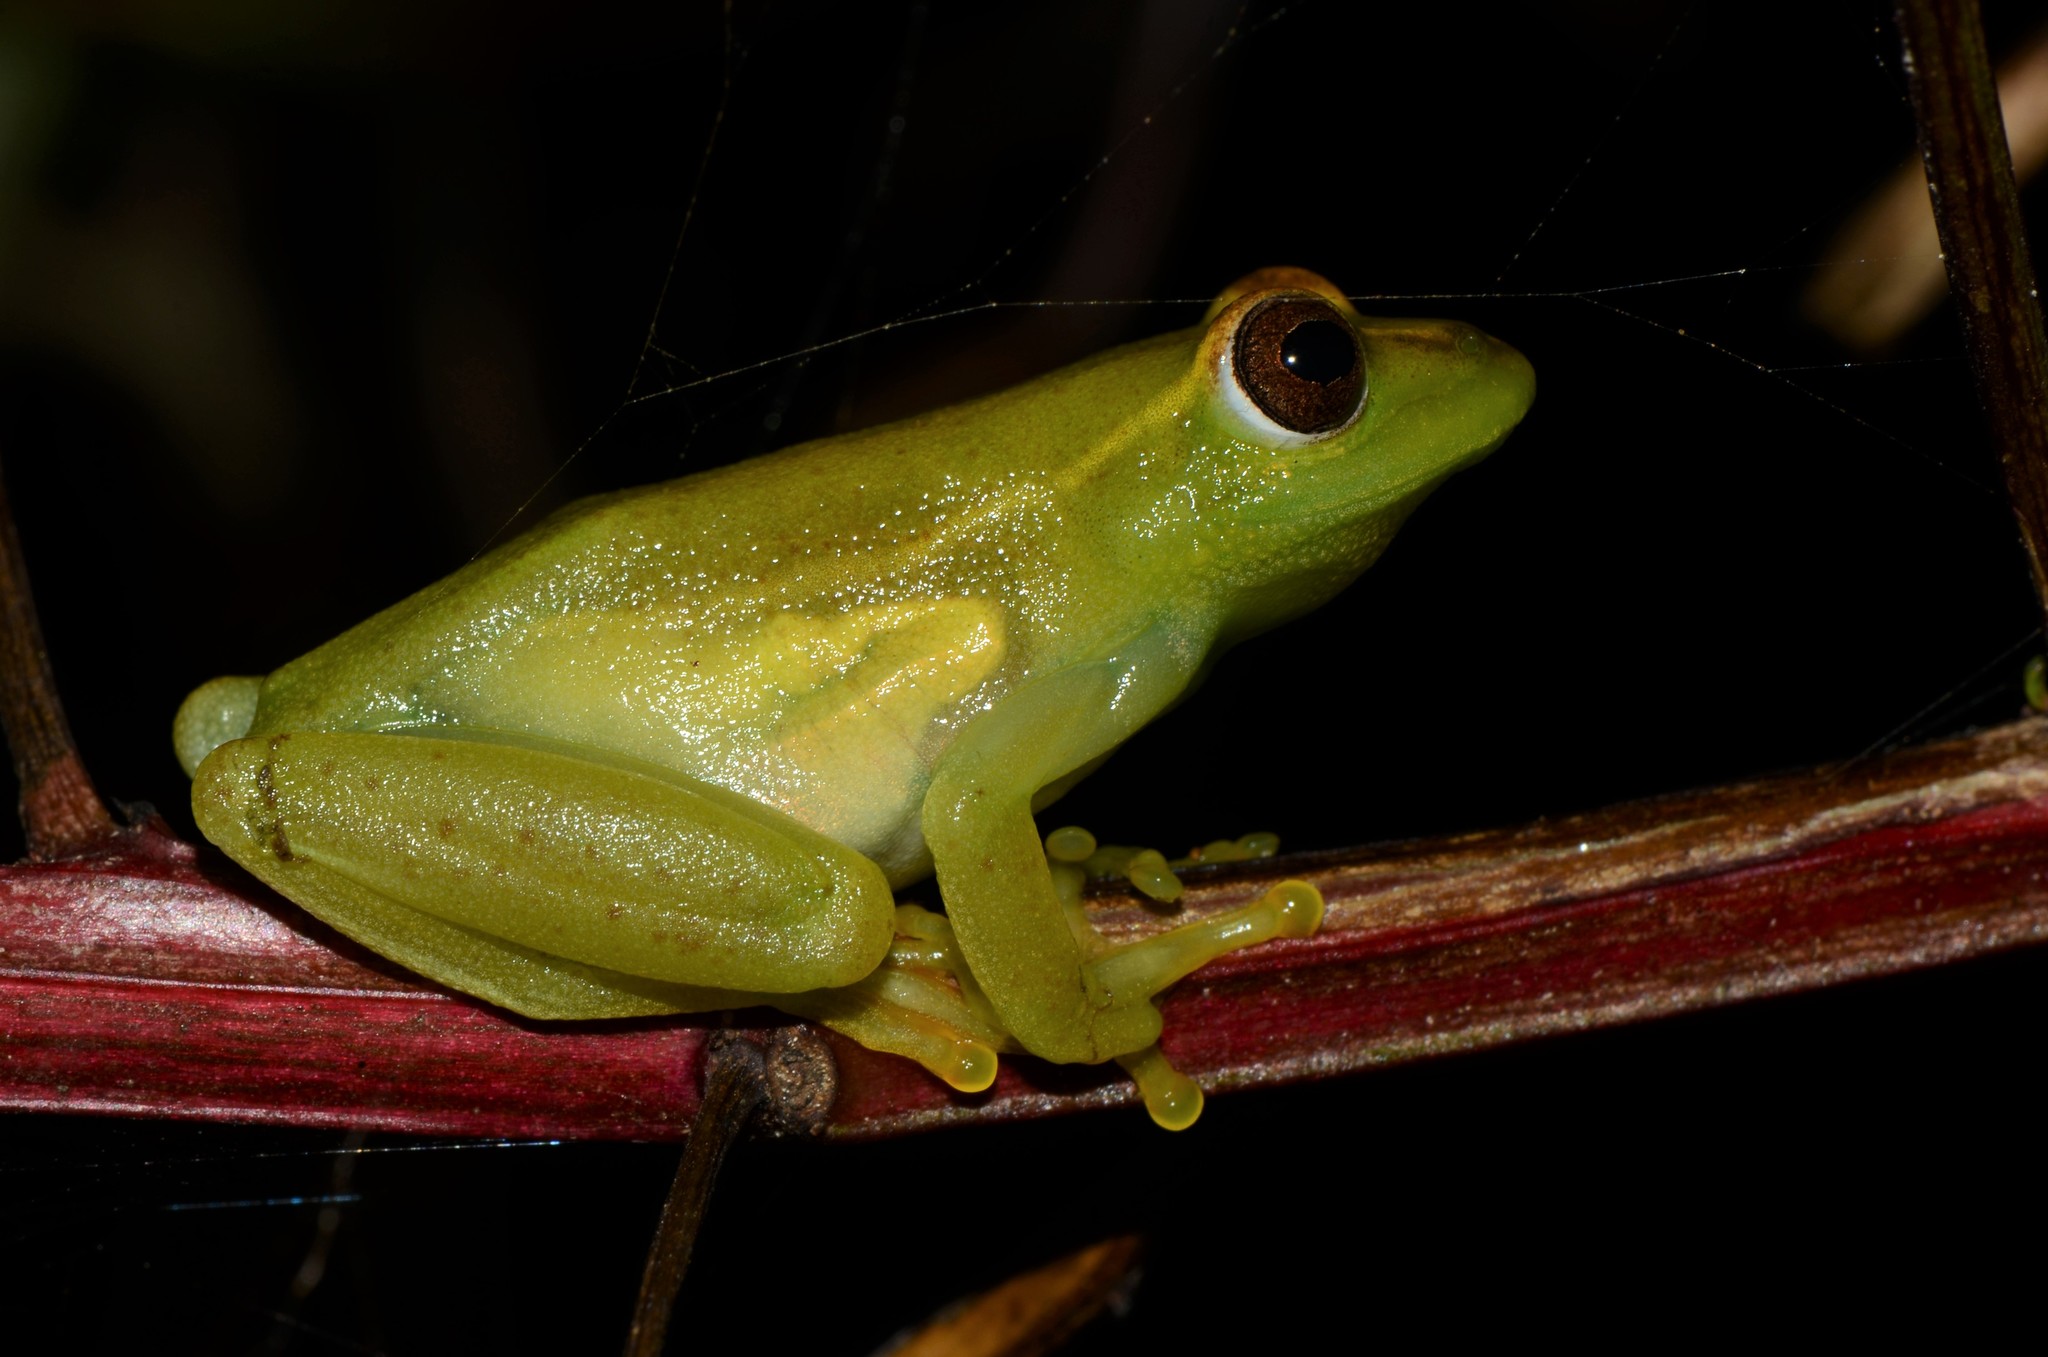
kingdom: Animalia
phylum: Chordata
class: Amphibia
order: Anura
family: Hyperoliidae
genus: Hyperolius
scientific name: Hyperolius argus
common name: Argus reed frog
